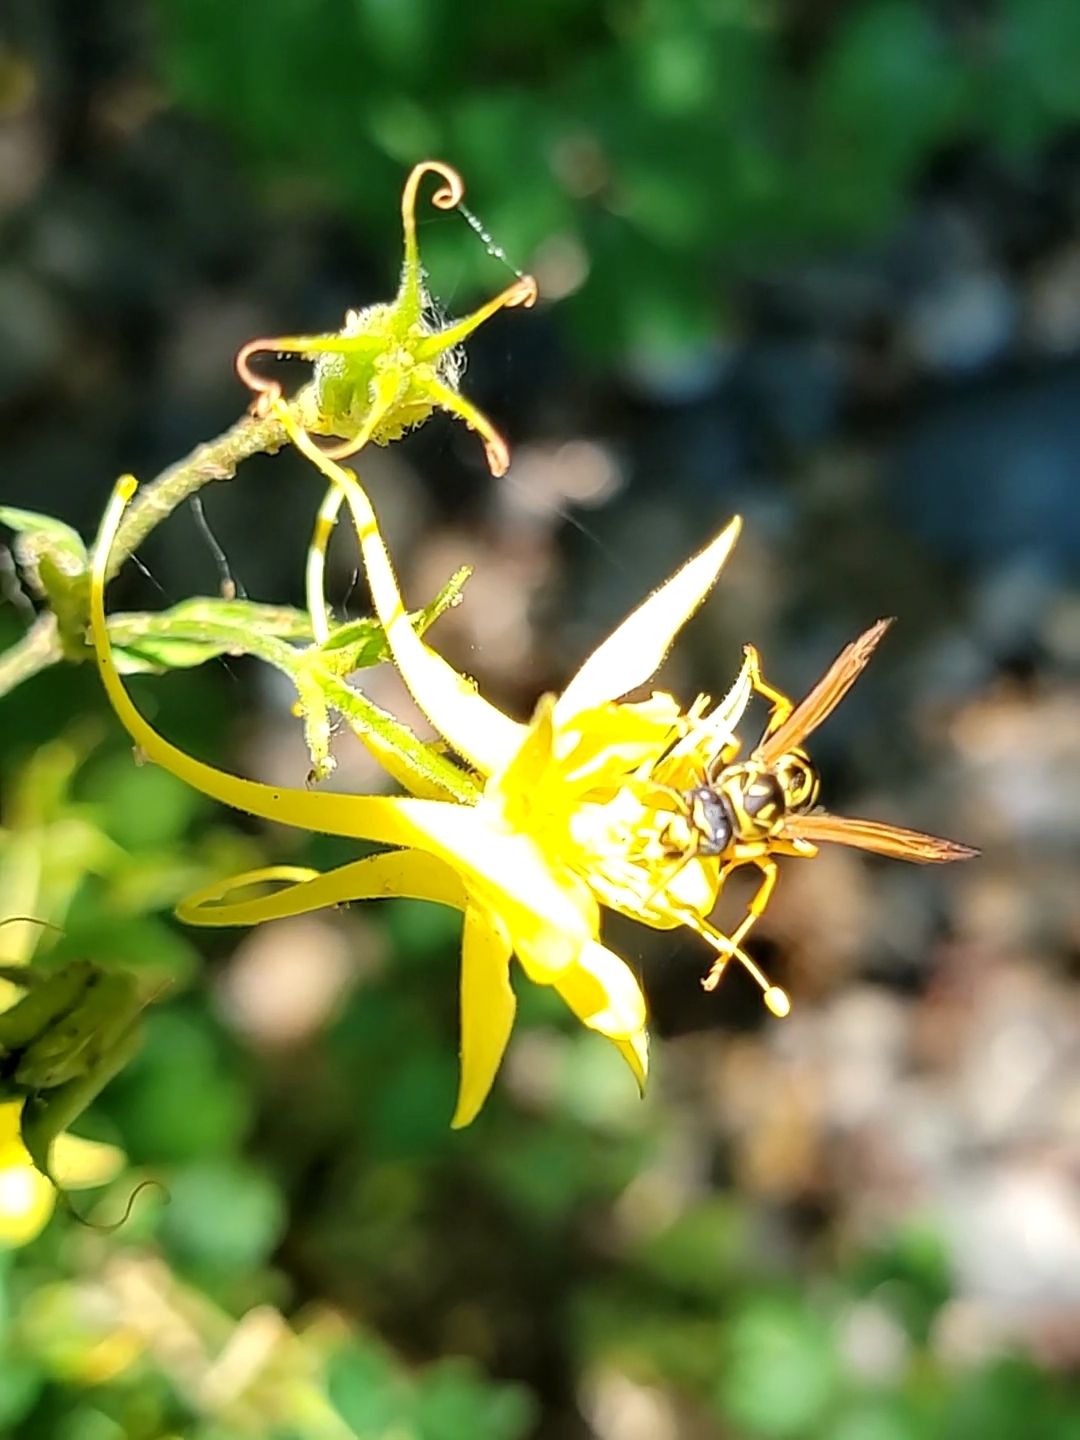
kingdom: Animalia
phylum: Arthropoda
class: Insecta
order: Hymenoptera
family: Eumenidae
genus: Polistes
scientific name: Polistes dominula
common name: Paper wasp
